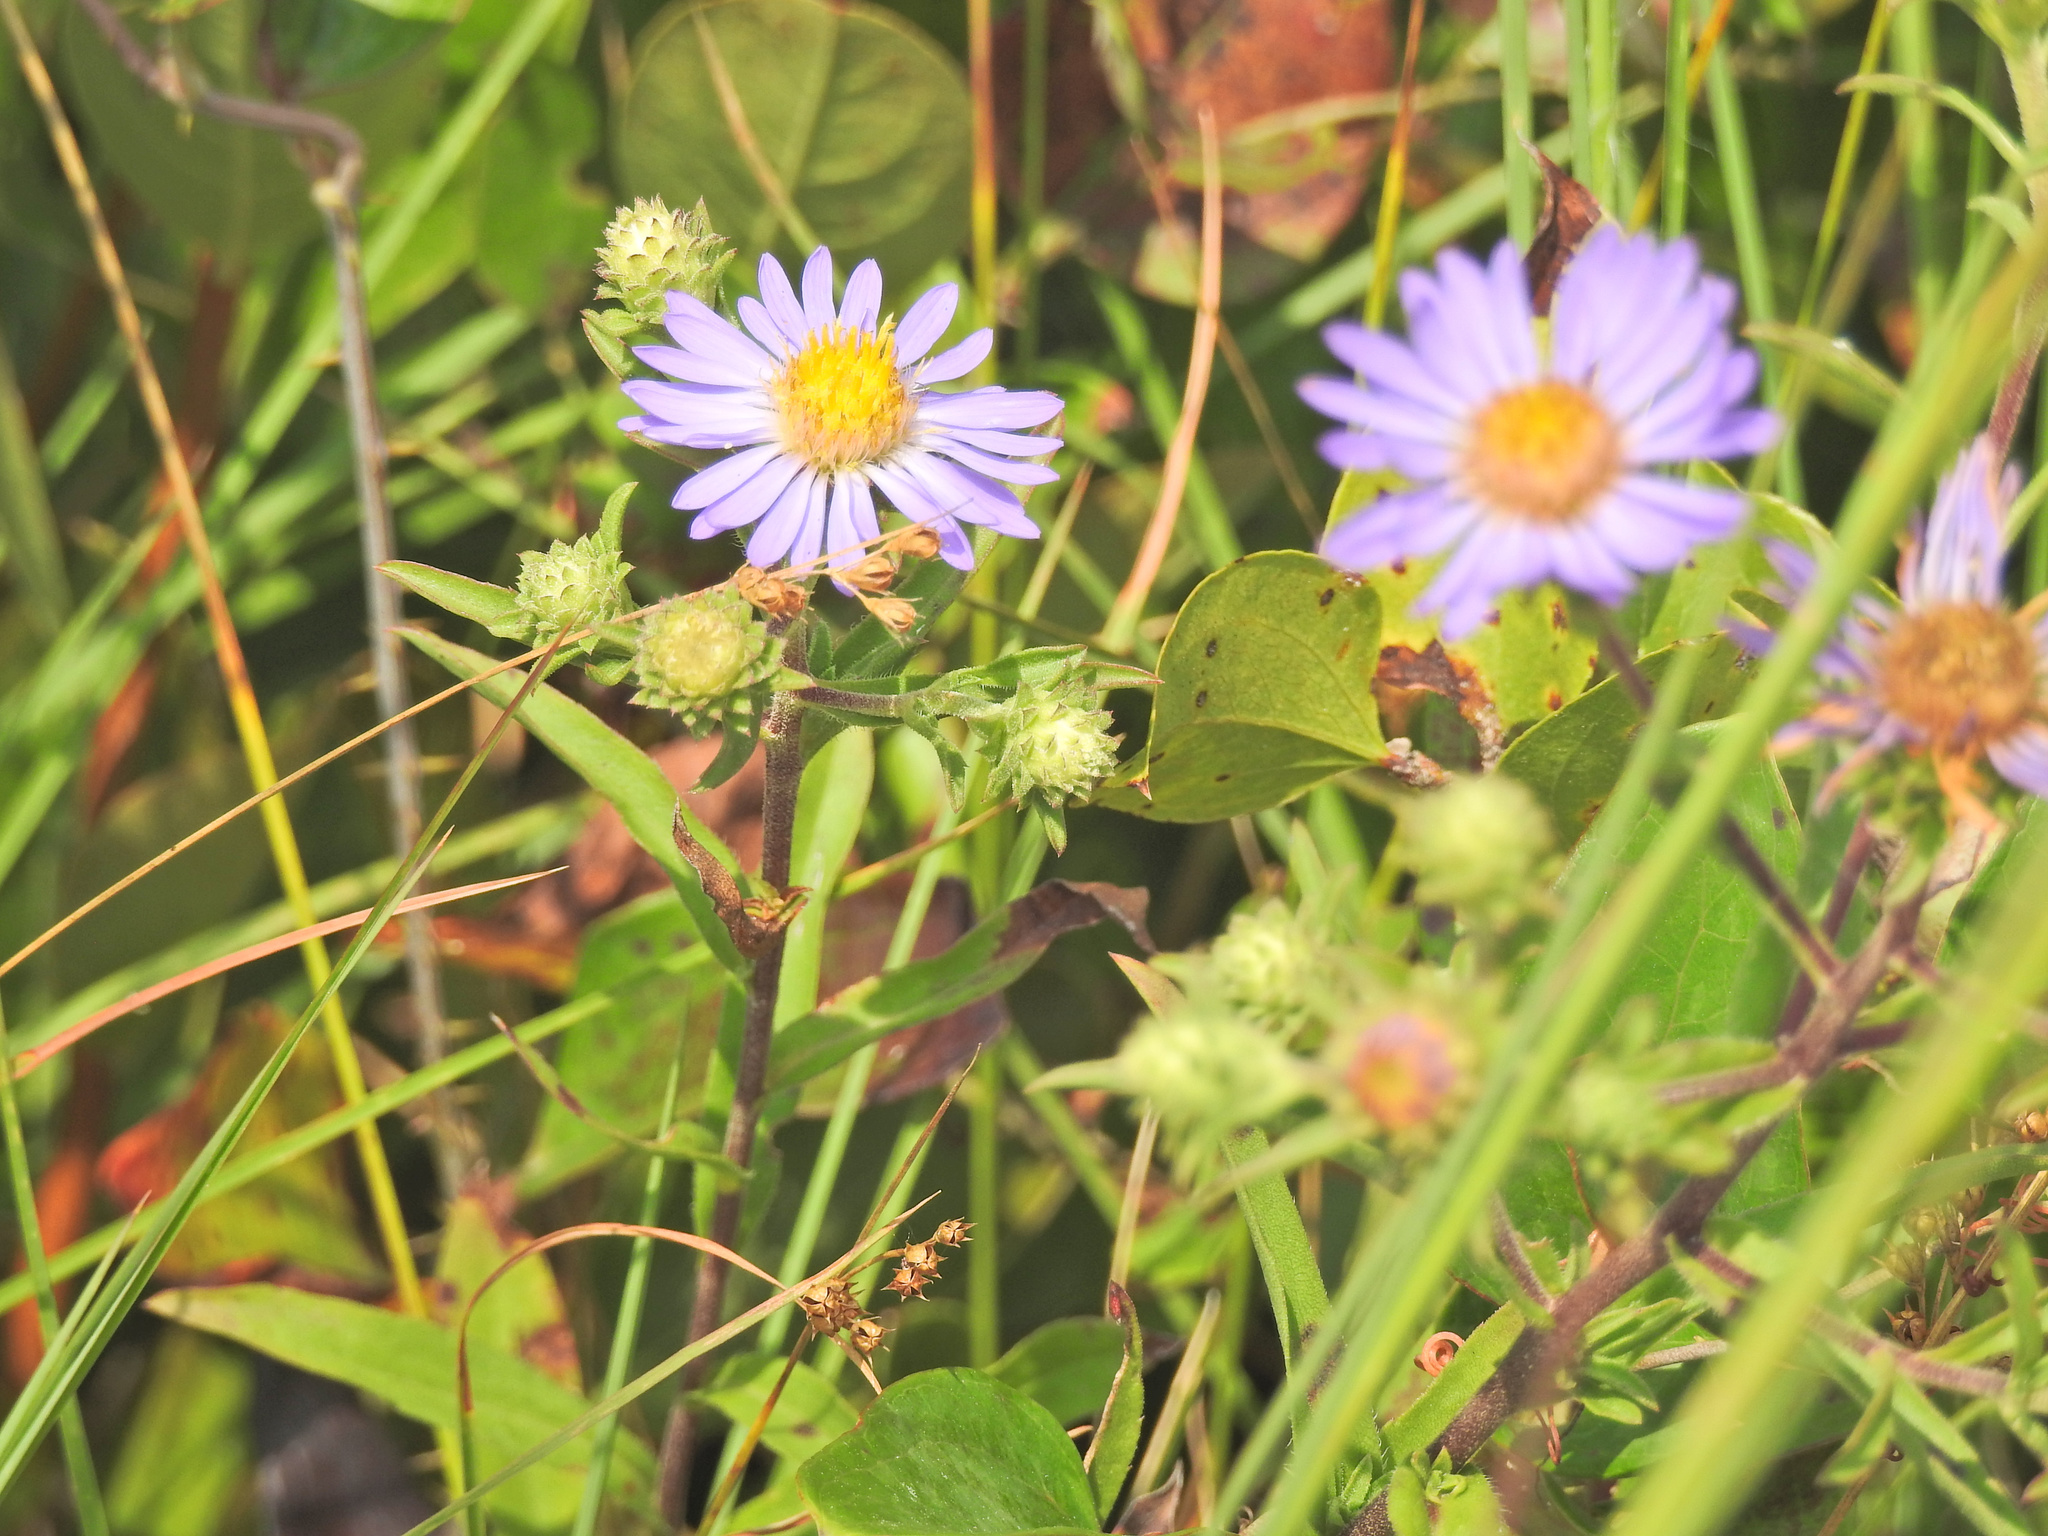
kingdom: Plantae
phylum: Tracheophyta
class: Magnoliopsida
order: Asterales
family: Asteraceae
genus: Eurybia
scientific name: Eurybia spectabilis
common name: Low showy aster
